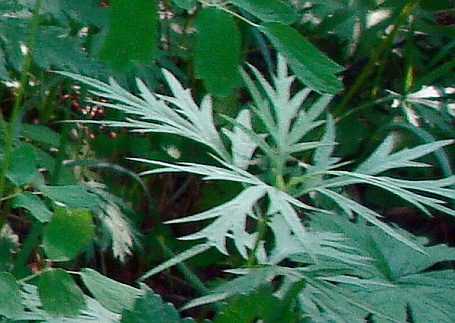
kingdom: Plantae
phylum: Tracheophyta
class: Magnoliopsida
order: Asterales
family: Asteraceae
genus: Artemisia
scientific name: Artemisia vulgaris
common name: Mugwort
